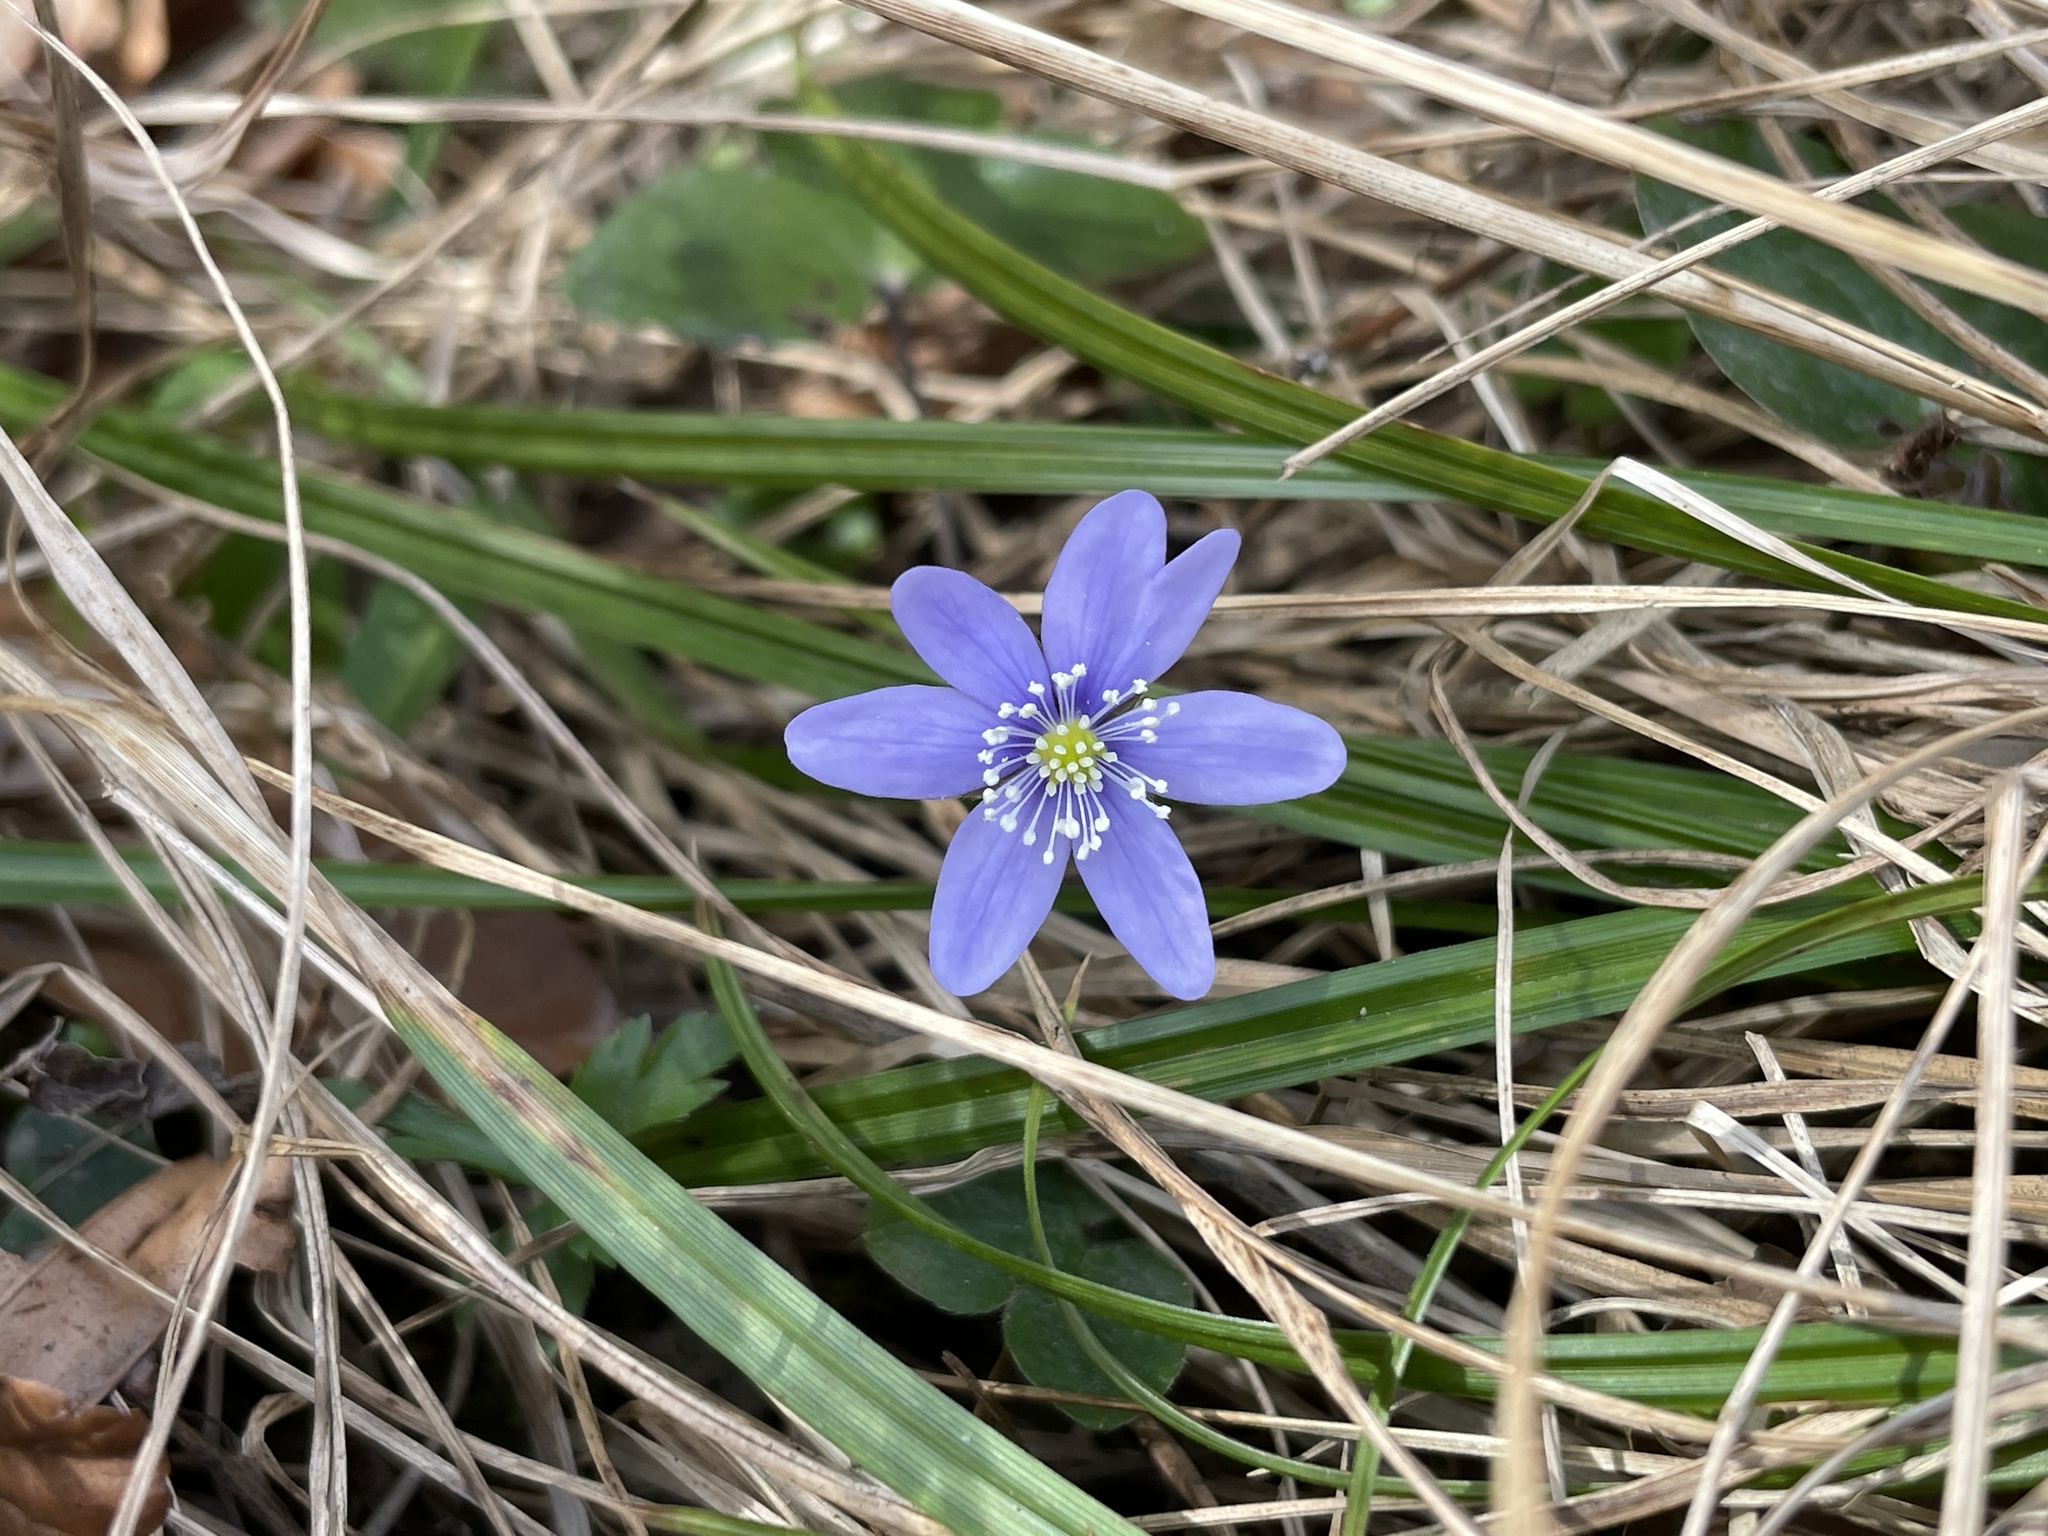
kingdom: Plantae
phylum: Tracheophyta
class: Magnoliopsida
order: Ranunculales
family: Ranunculaceae
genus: Hepatica
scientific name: Hepatica nobilis
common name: Liverleaf
